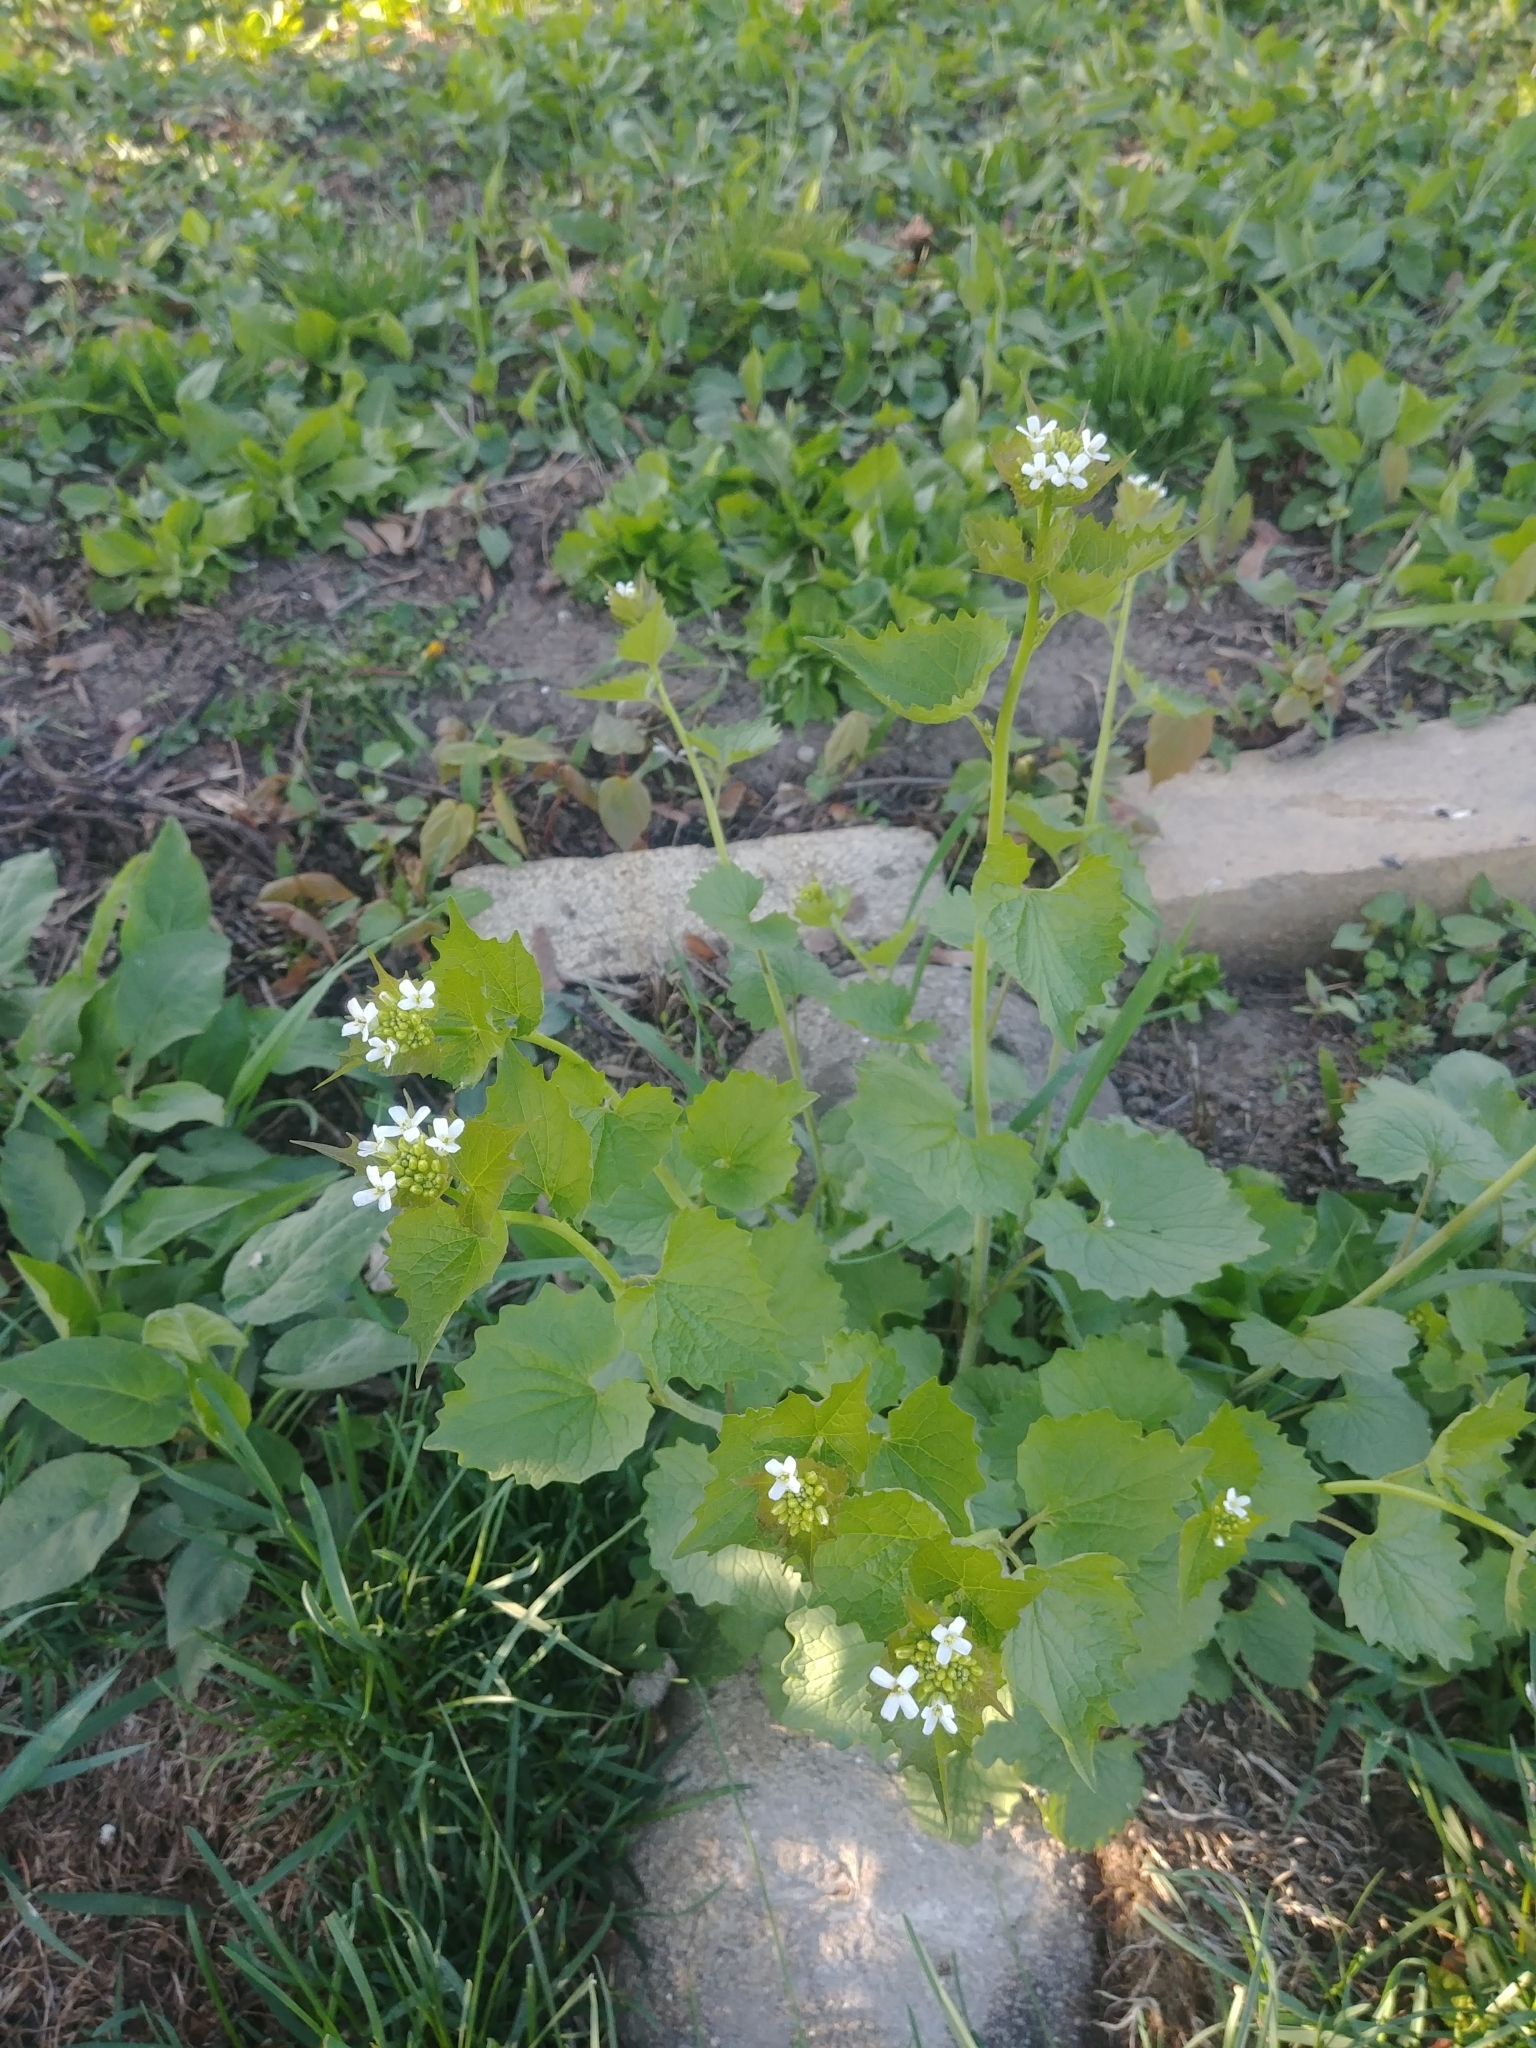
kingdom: Plantae
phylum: Tracheophyta
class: Magnoliopsida
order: Brassicales
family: Brassicaceae
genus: Alliaria
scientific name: Alliaria petiolata
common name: Garlic mustard
